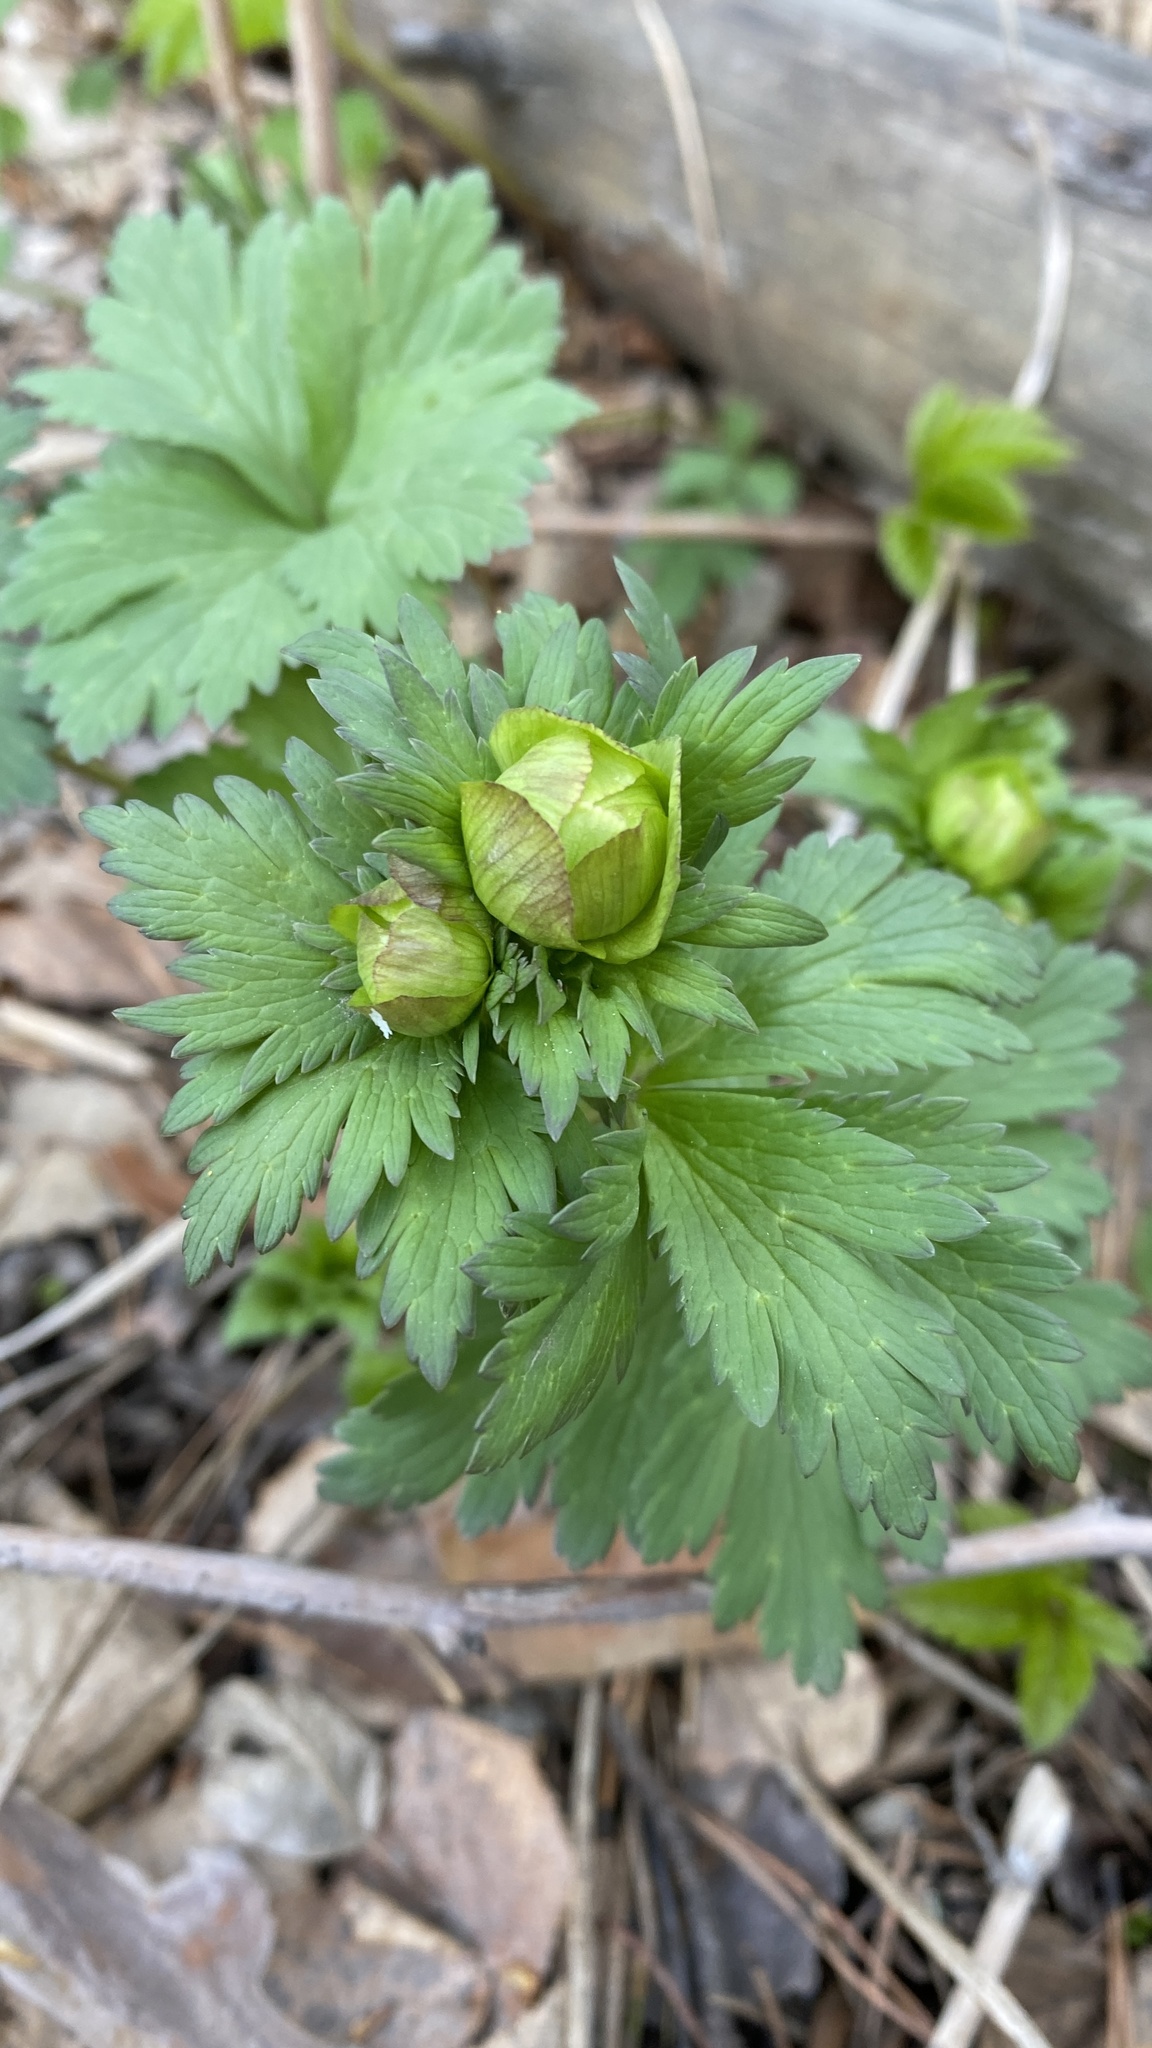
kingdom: Plantae
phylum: Tracheophyta
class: Magnoliopsida
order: Ranunculales
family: Ranunculaceae
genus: Trollius
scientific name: Trollius europaeus
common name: European globeflower
